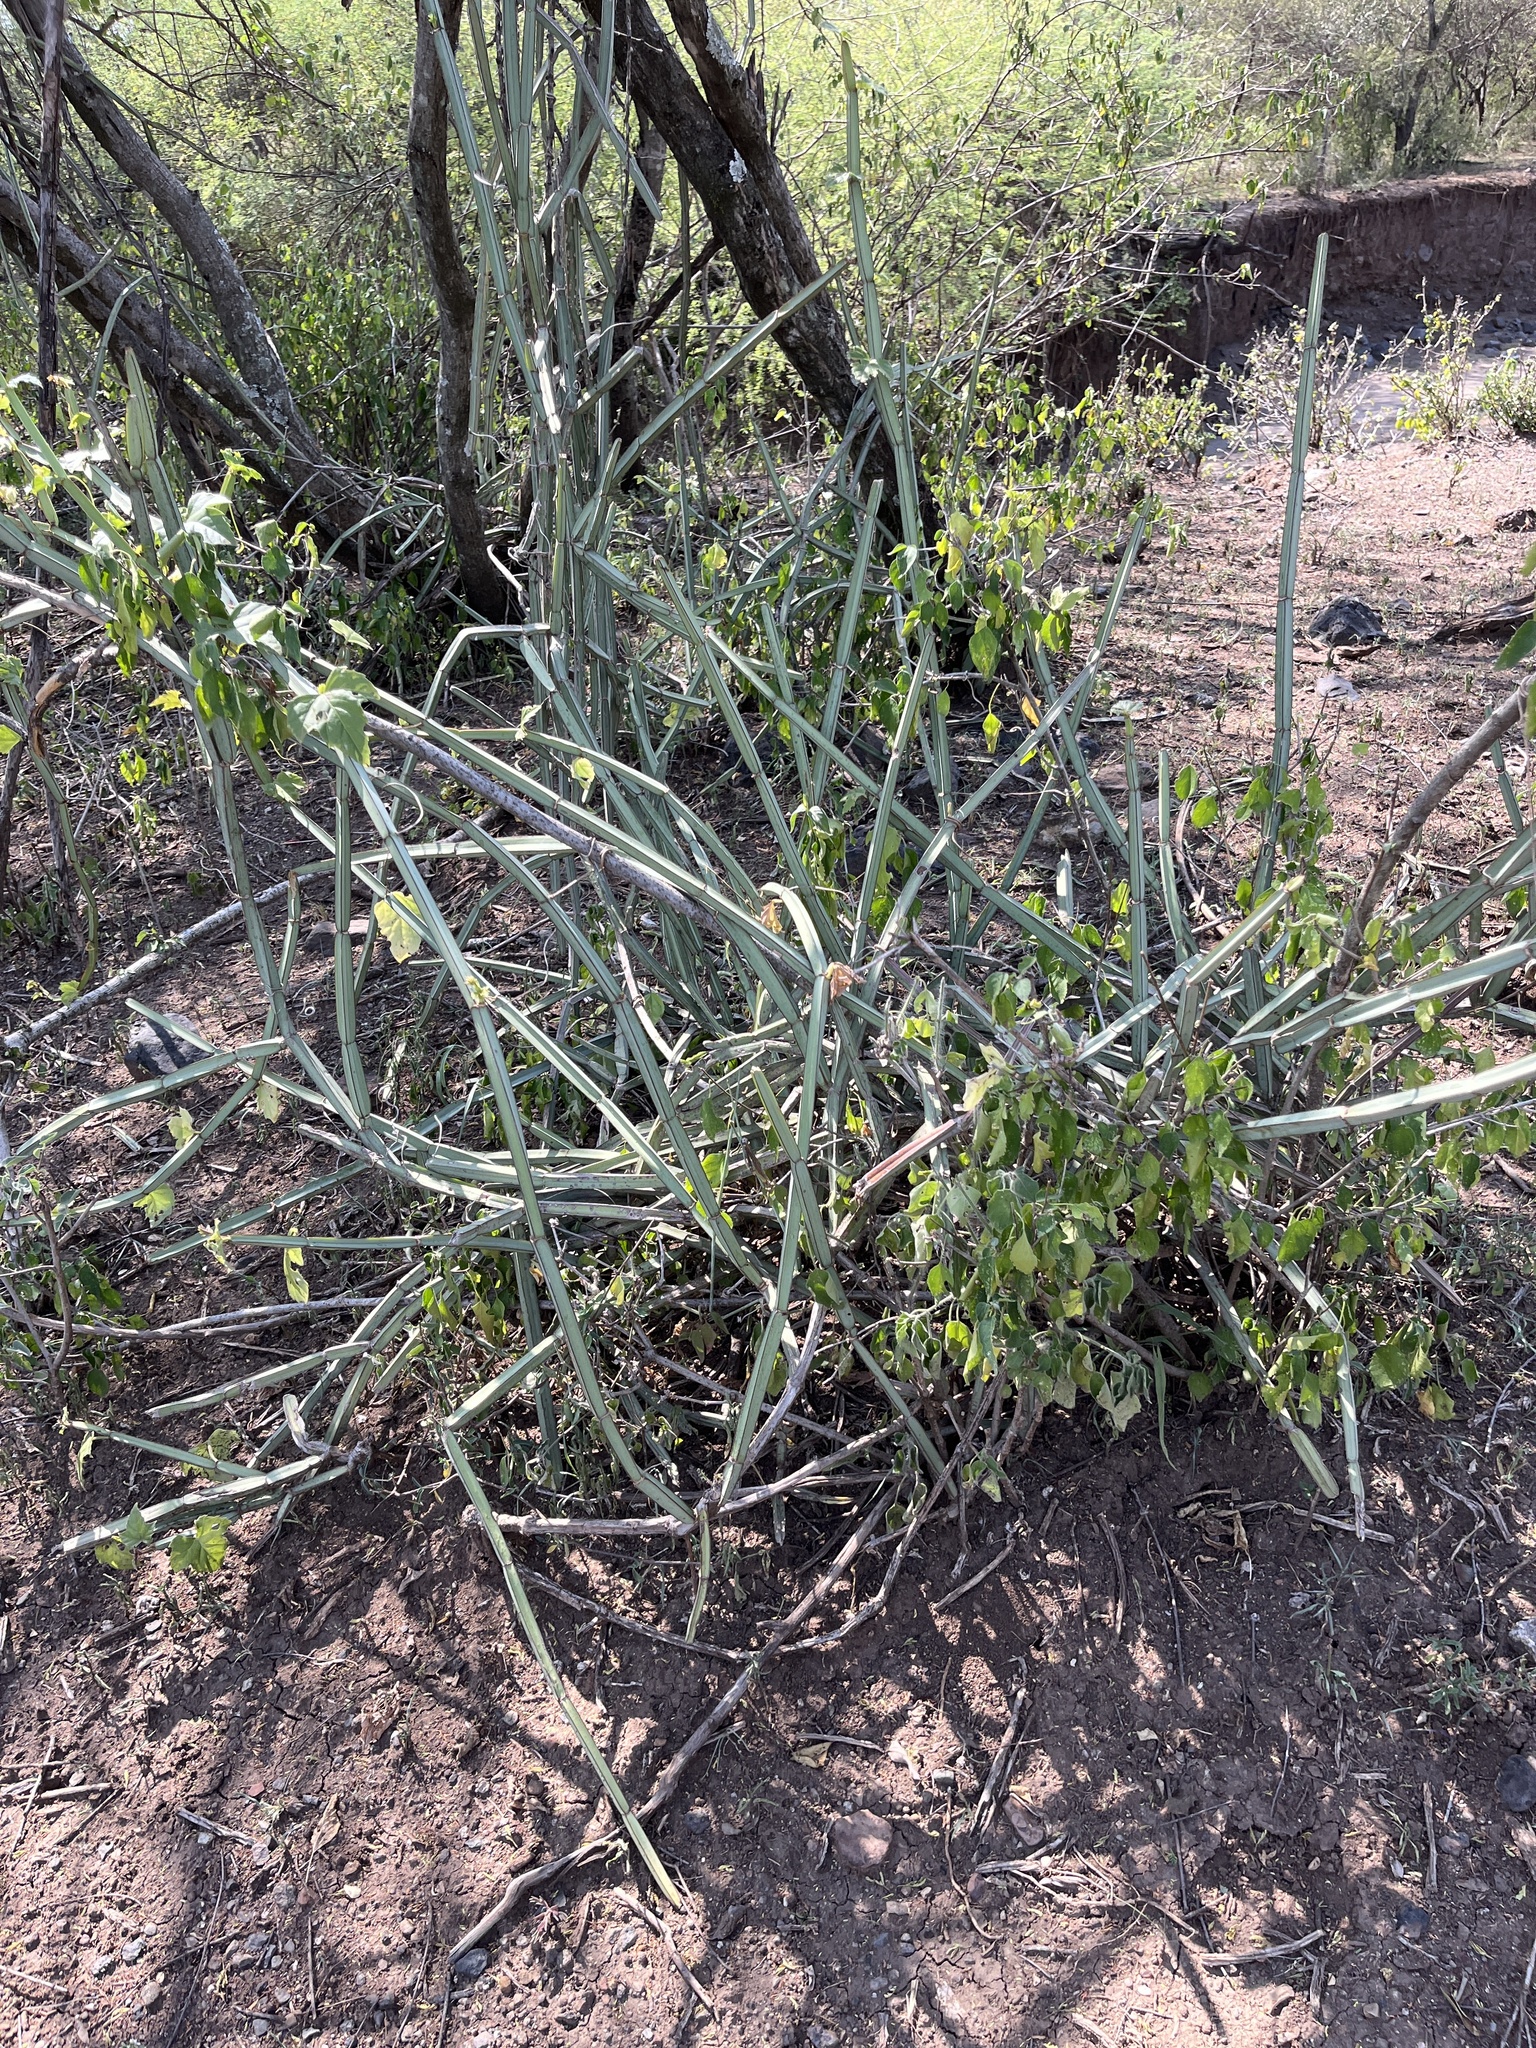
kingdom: Plantae
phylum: Tracheophyta
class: Magnoliopsida
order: Vitales
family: Vitaceae
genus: Cissus
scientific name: Cissus quadrangularis
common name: Veldt-grape
